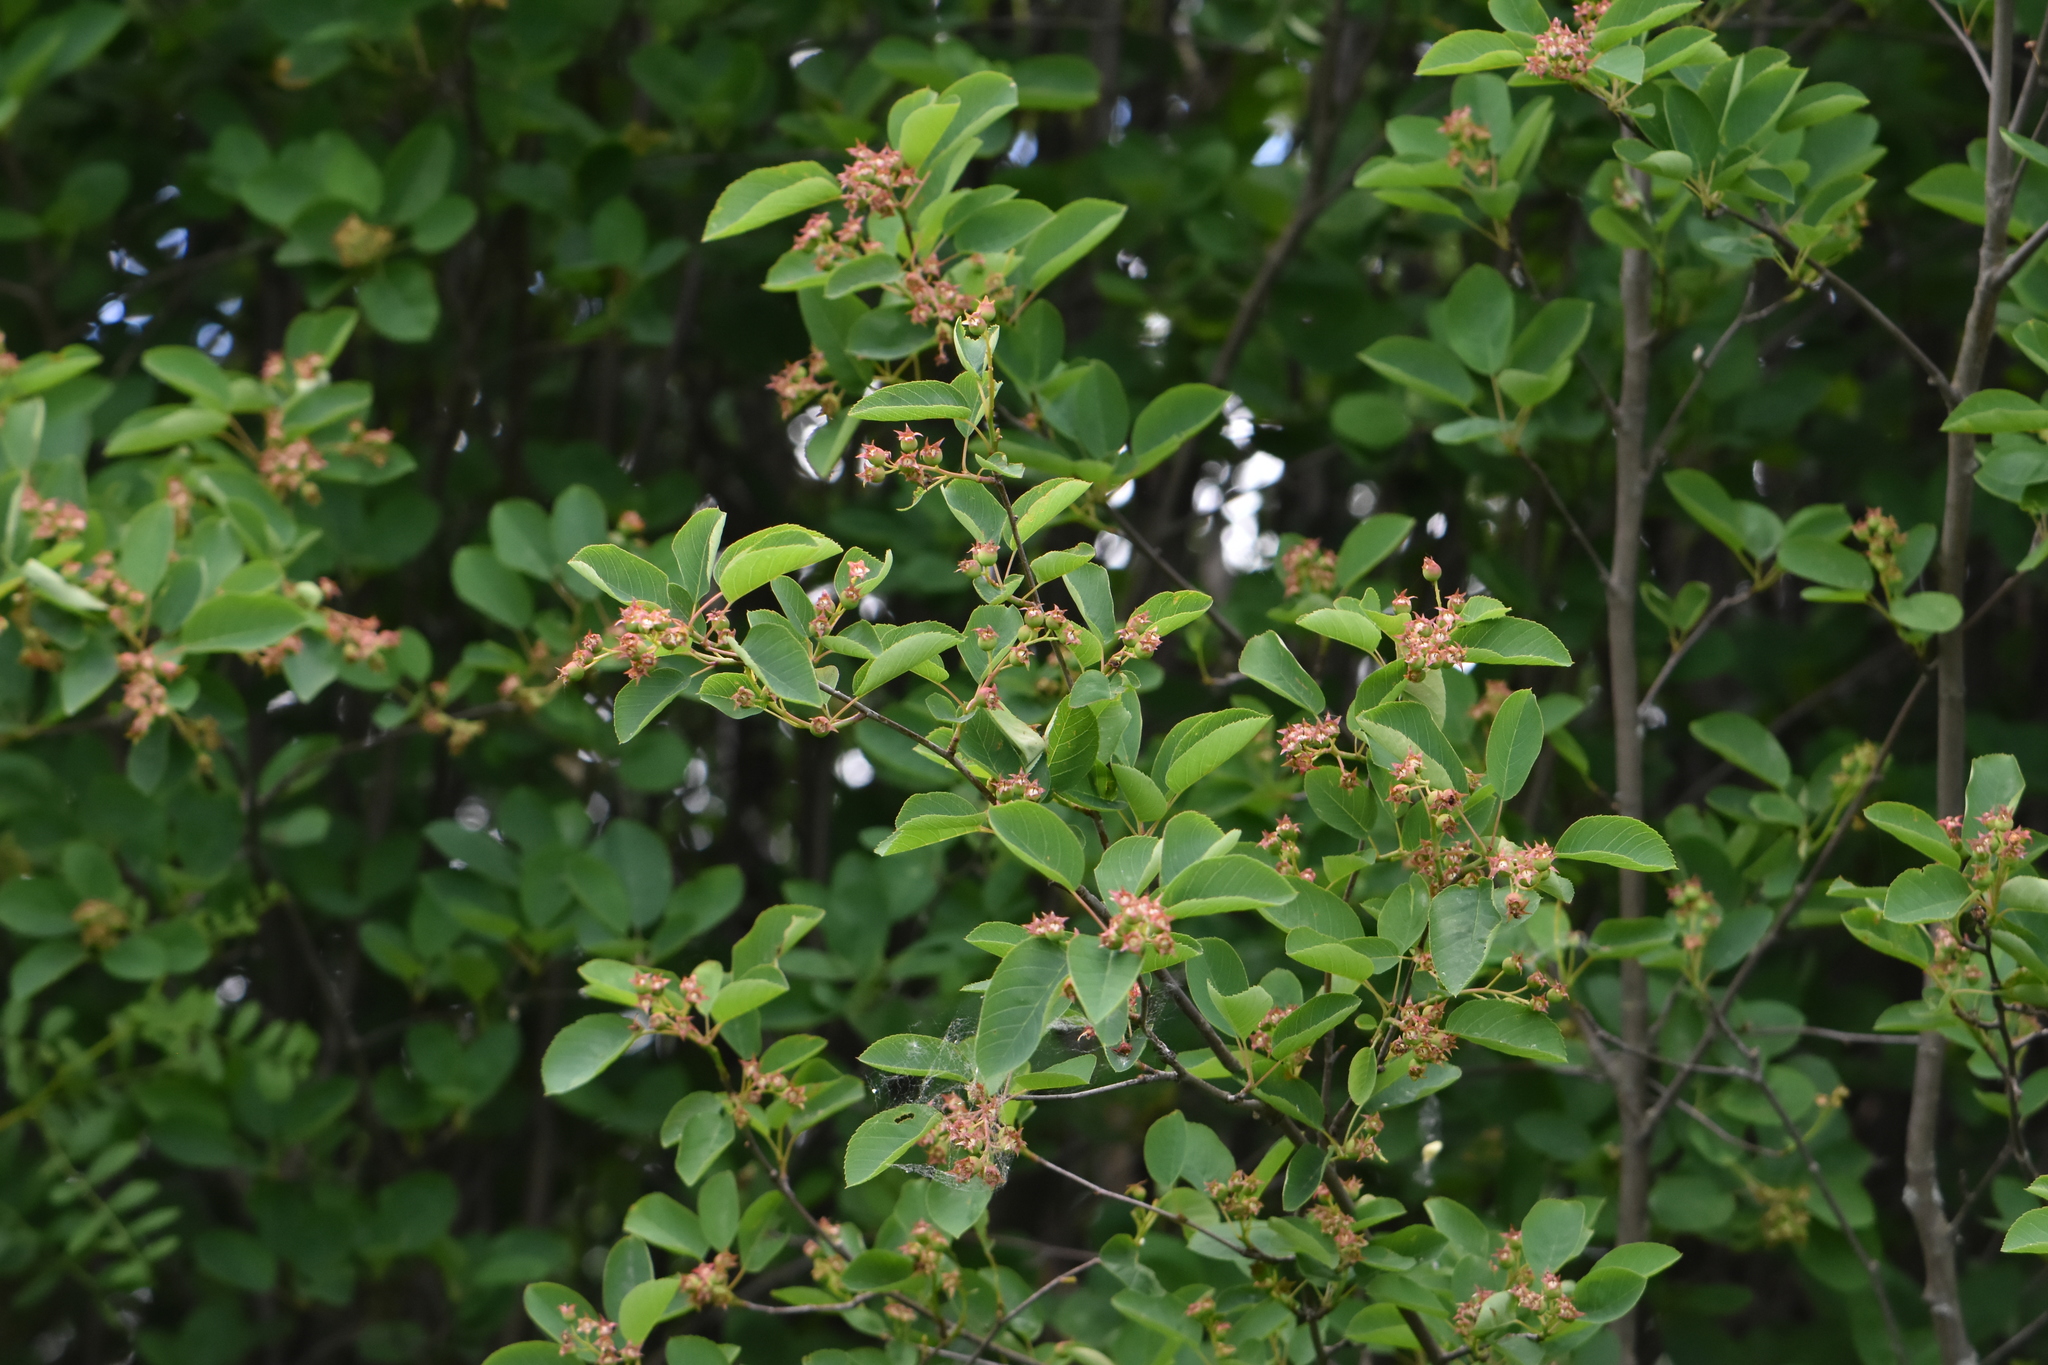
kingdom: Plantae
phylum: Tracheophyta
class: Magnoliopsida
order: Rosales
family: Rosaceae
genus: Amelanchier
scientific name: Amelanchier
